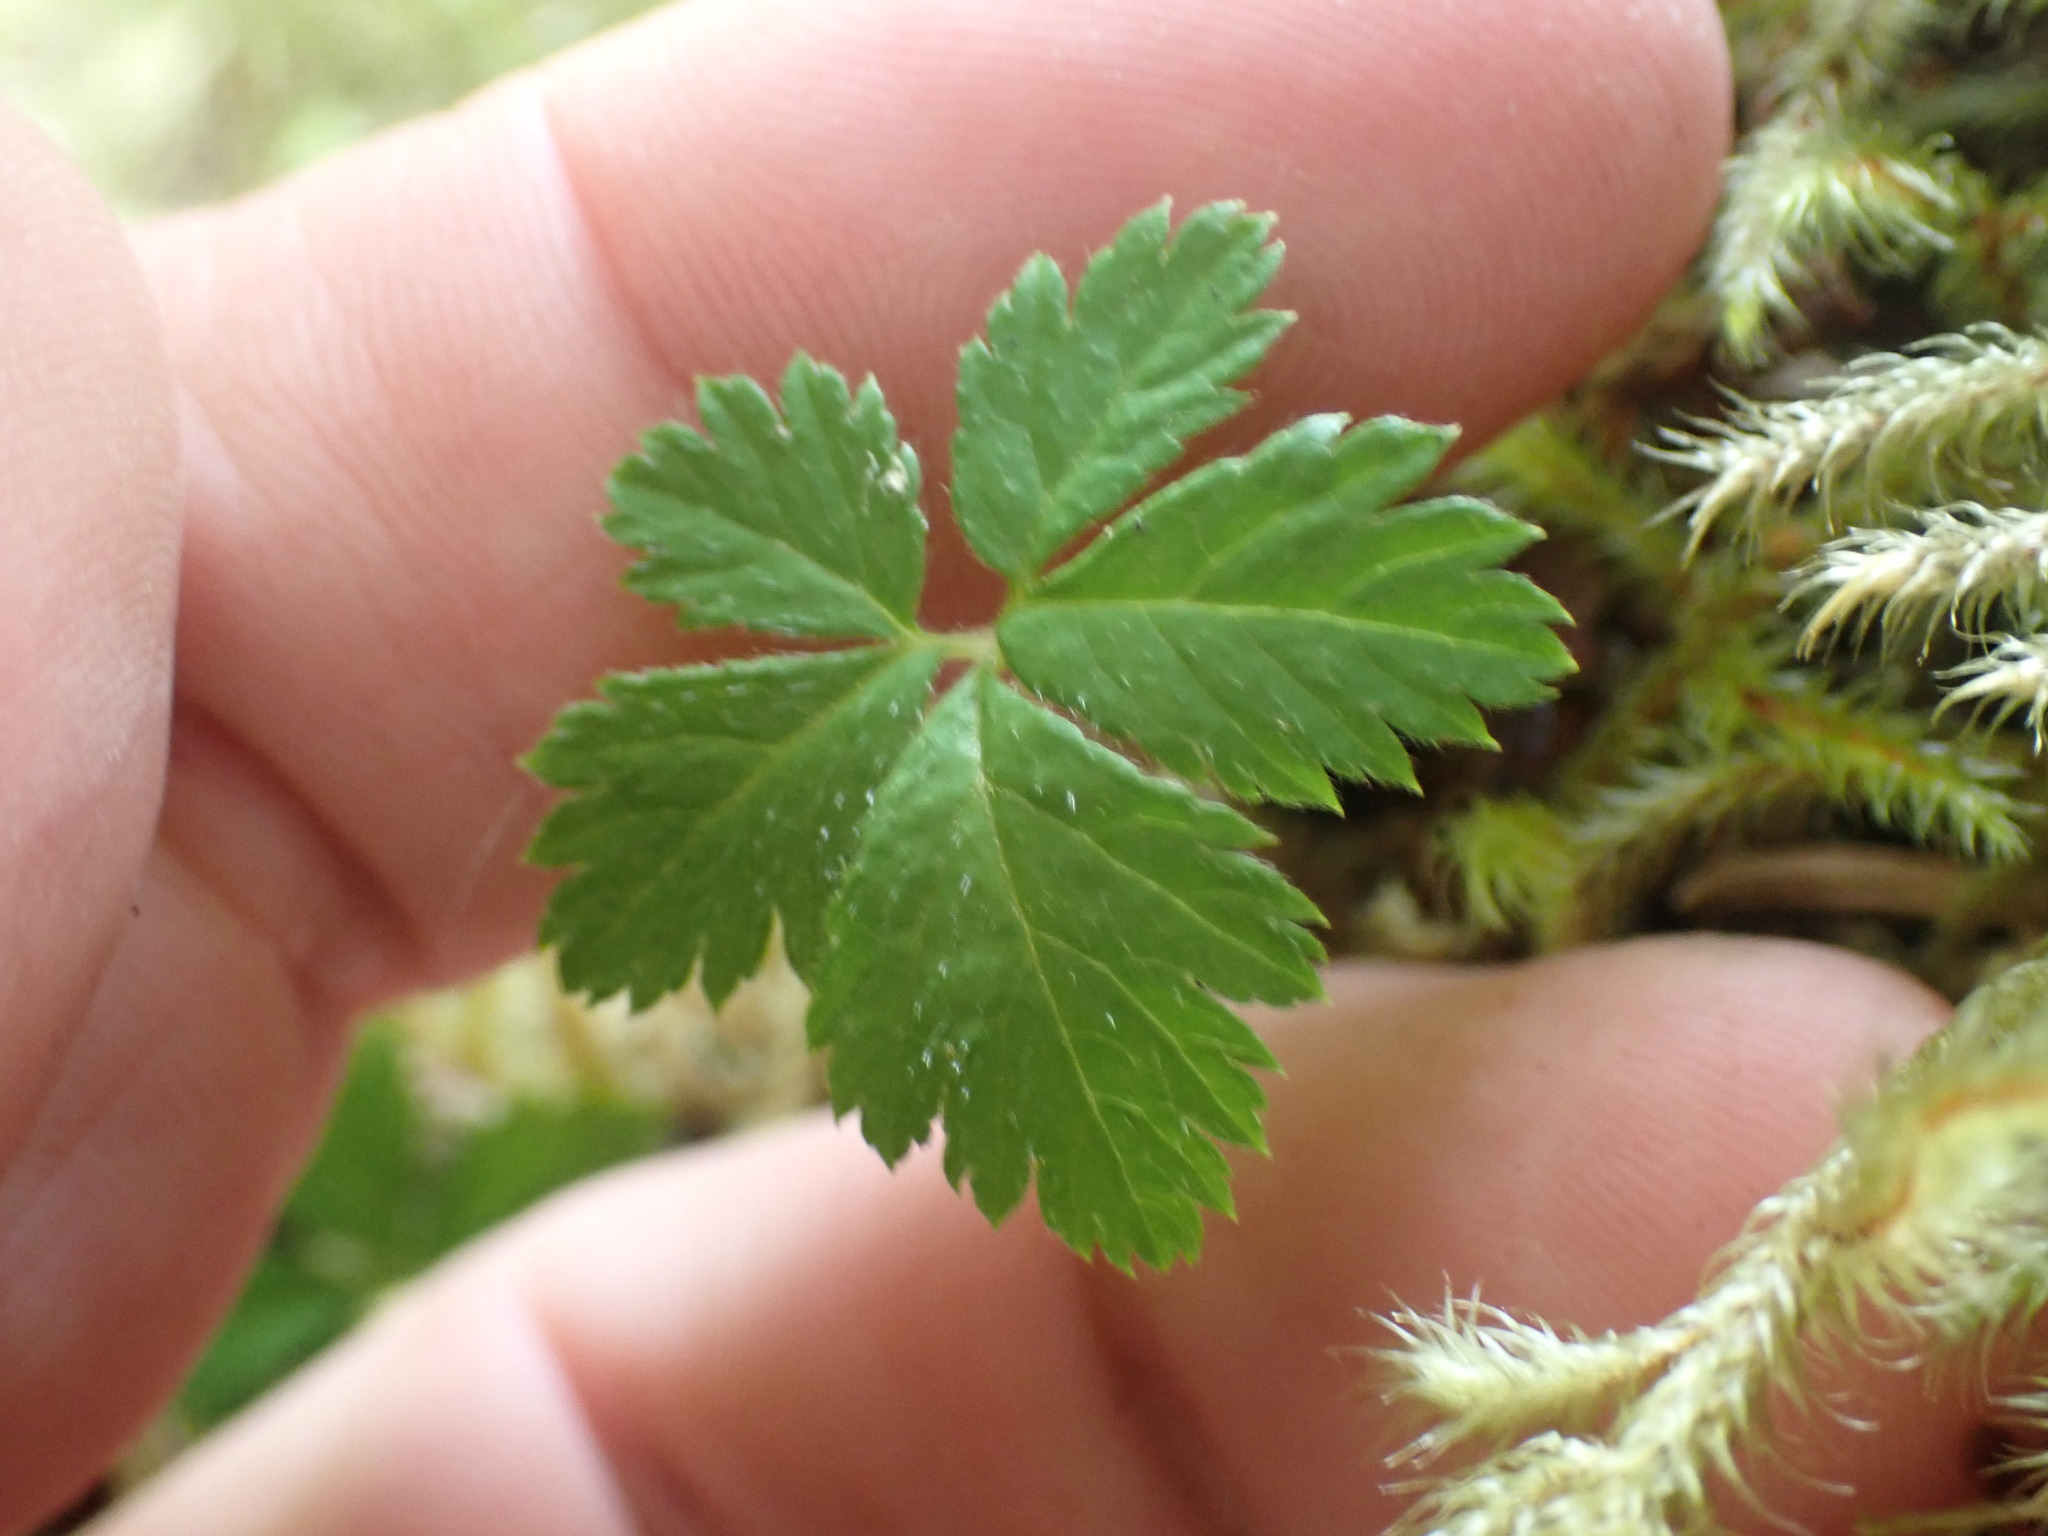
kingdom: Plantae
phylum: Tracheophyta
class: Magnoliopsida
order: Rosales
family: Rosaceae
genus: Rubus
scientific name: Rubus pedatus
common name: Creeping raspberry
